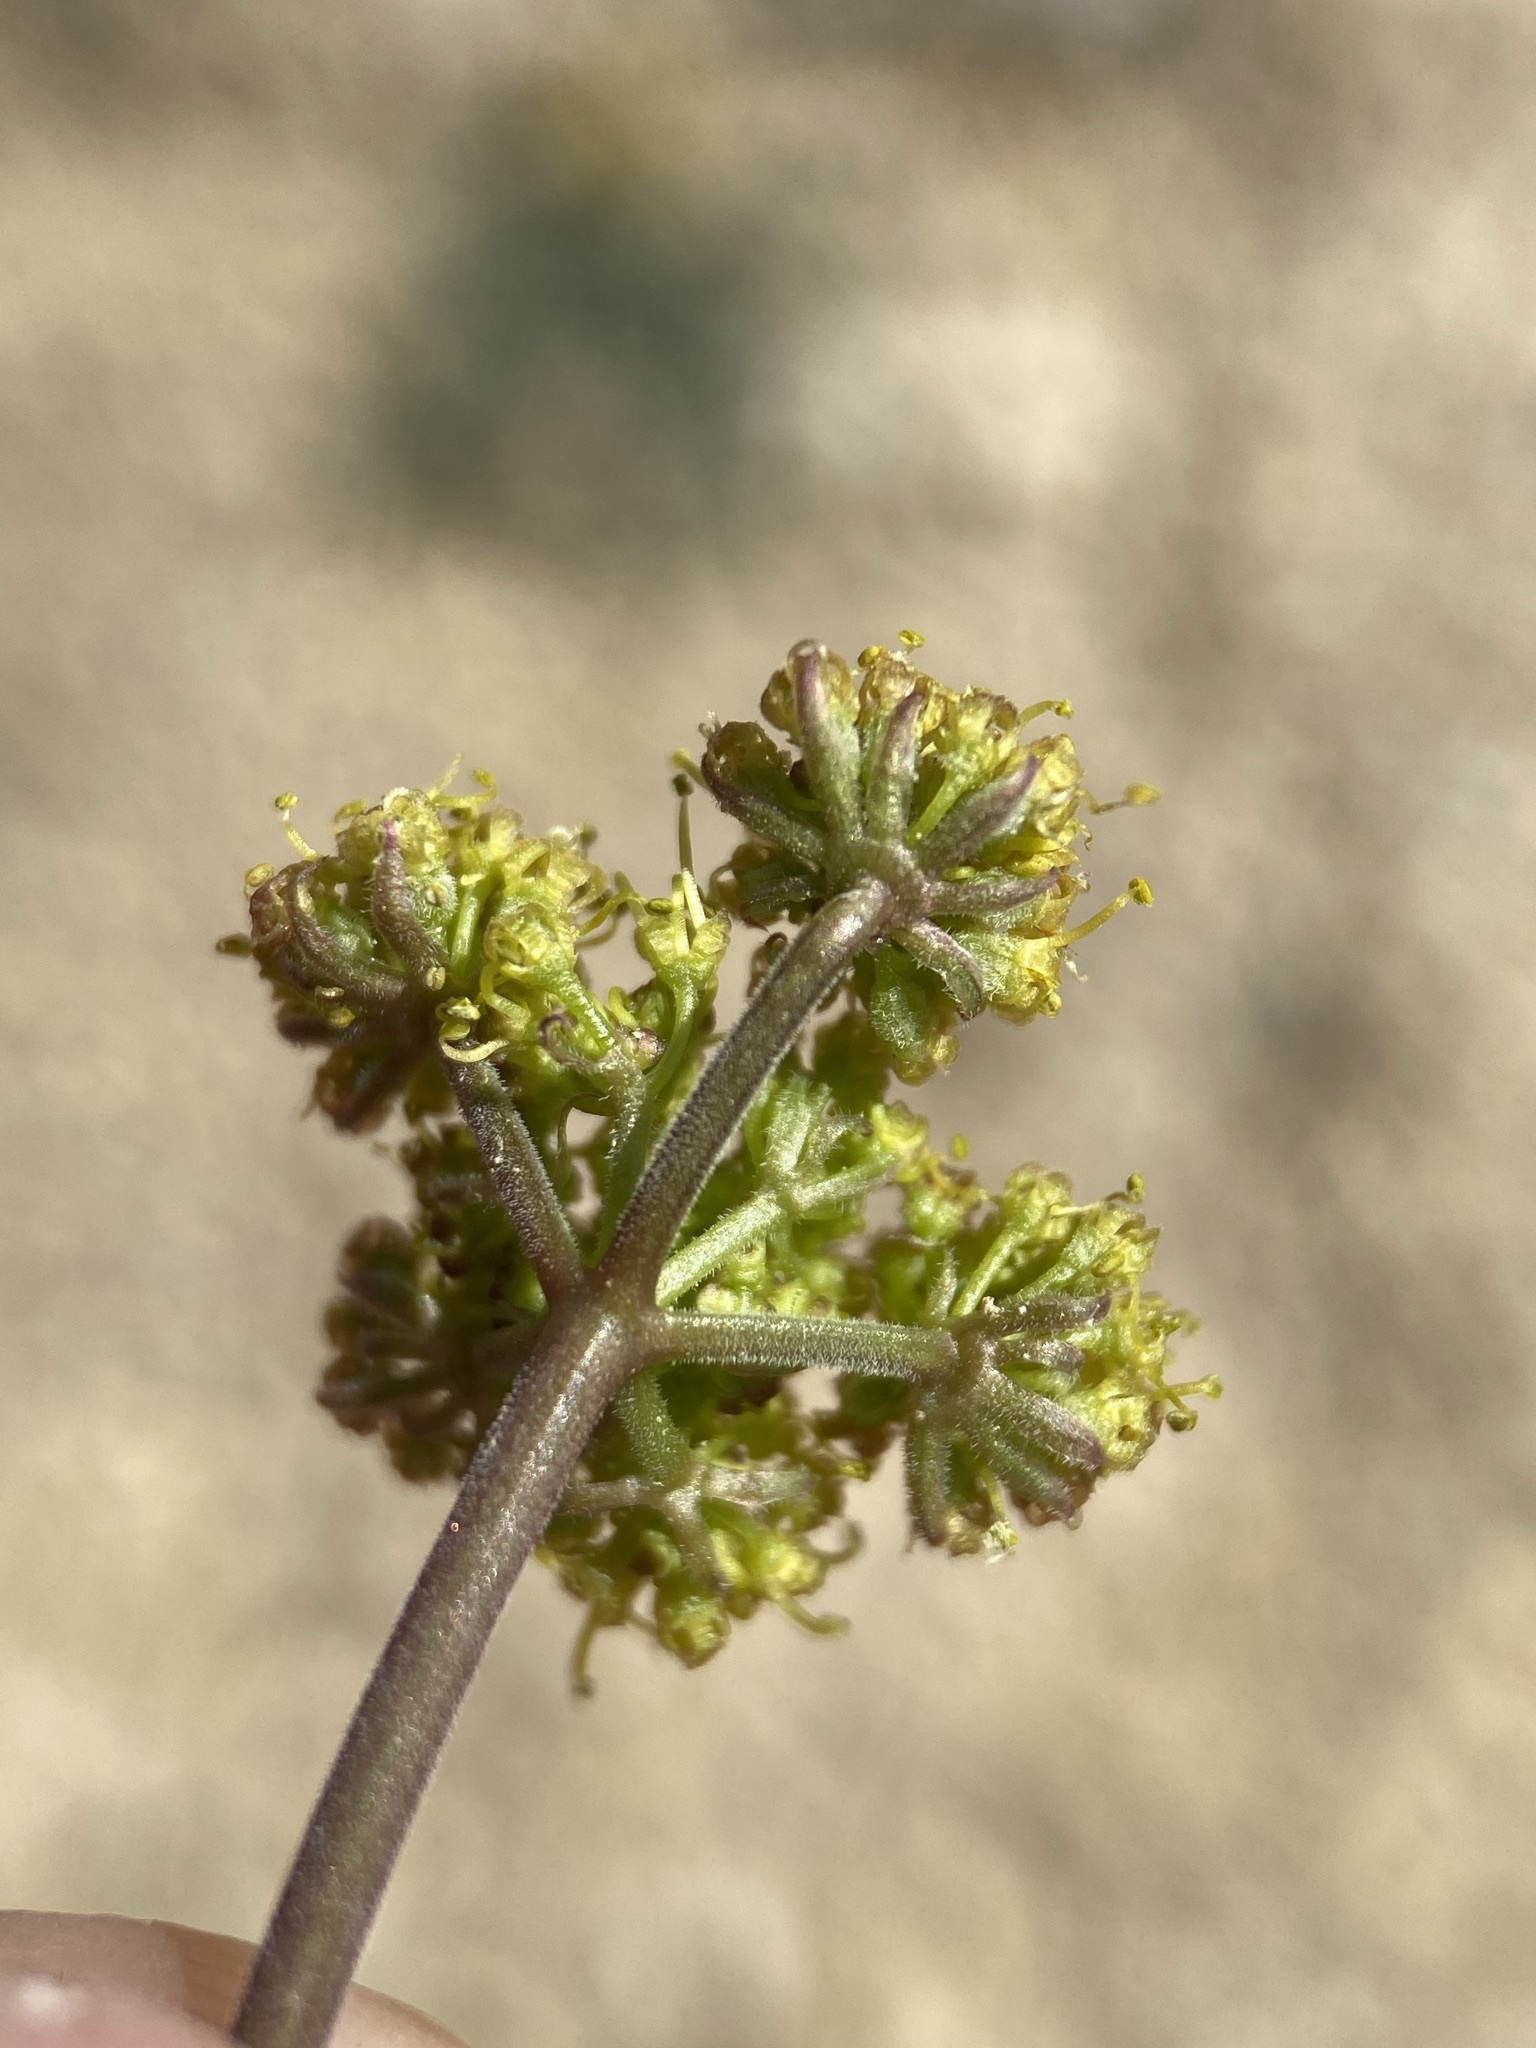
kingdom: Plantae
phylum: Tracheophyta
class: Magnoliopsida
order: Apiales
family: Apiaceae
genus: Lomatium
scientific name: Lomatium foeniculaceum
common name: Desert-parsley
